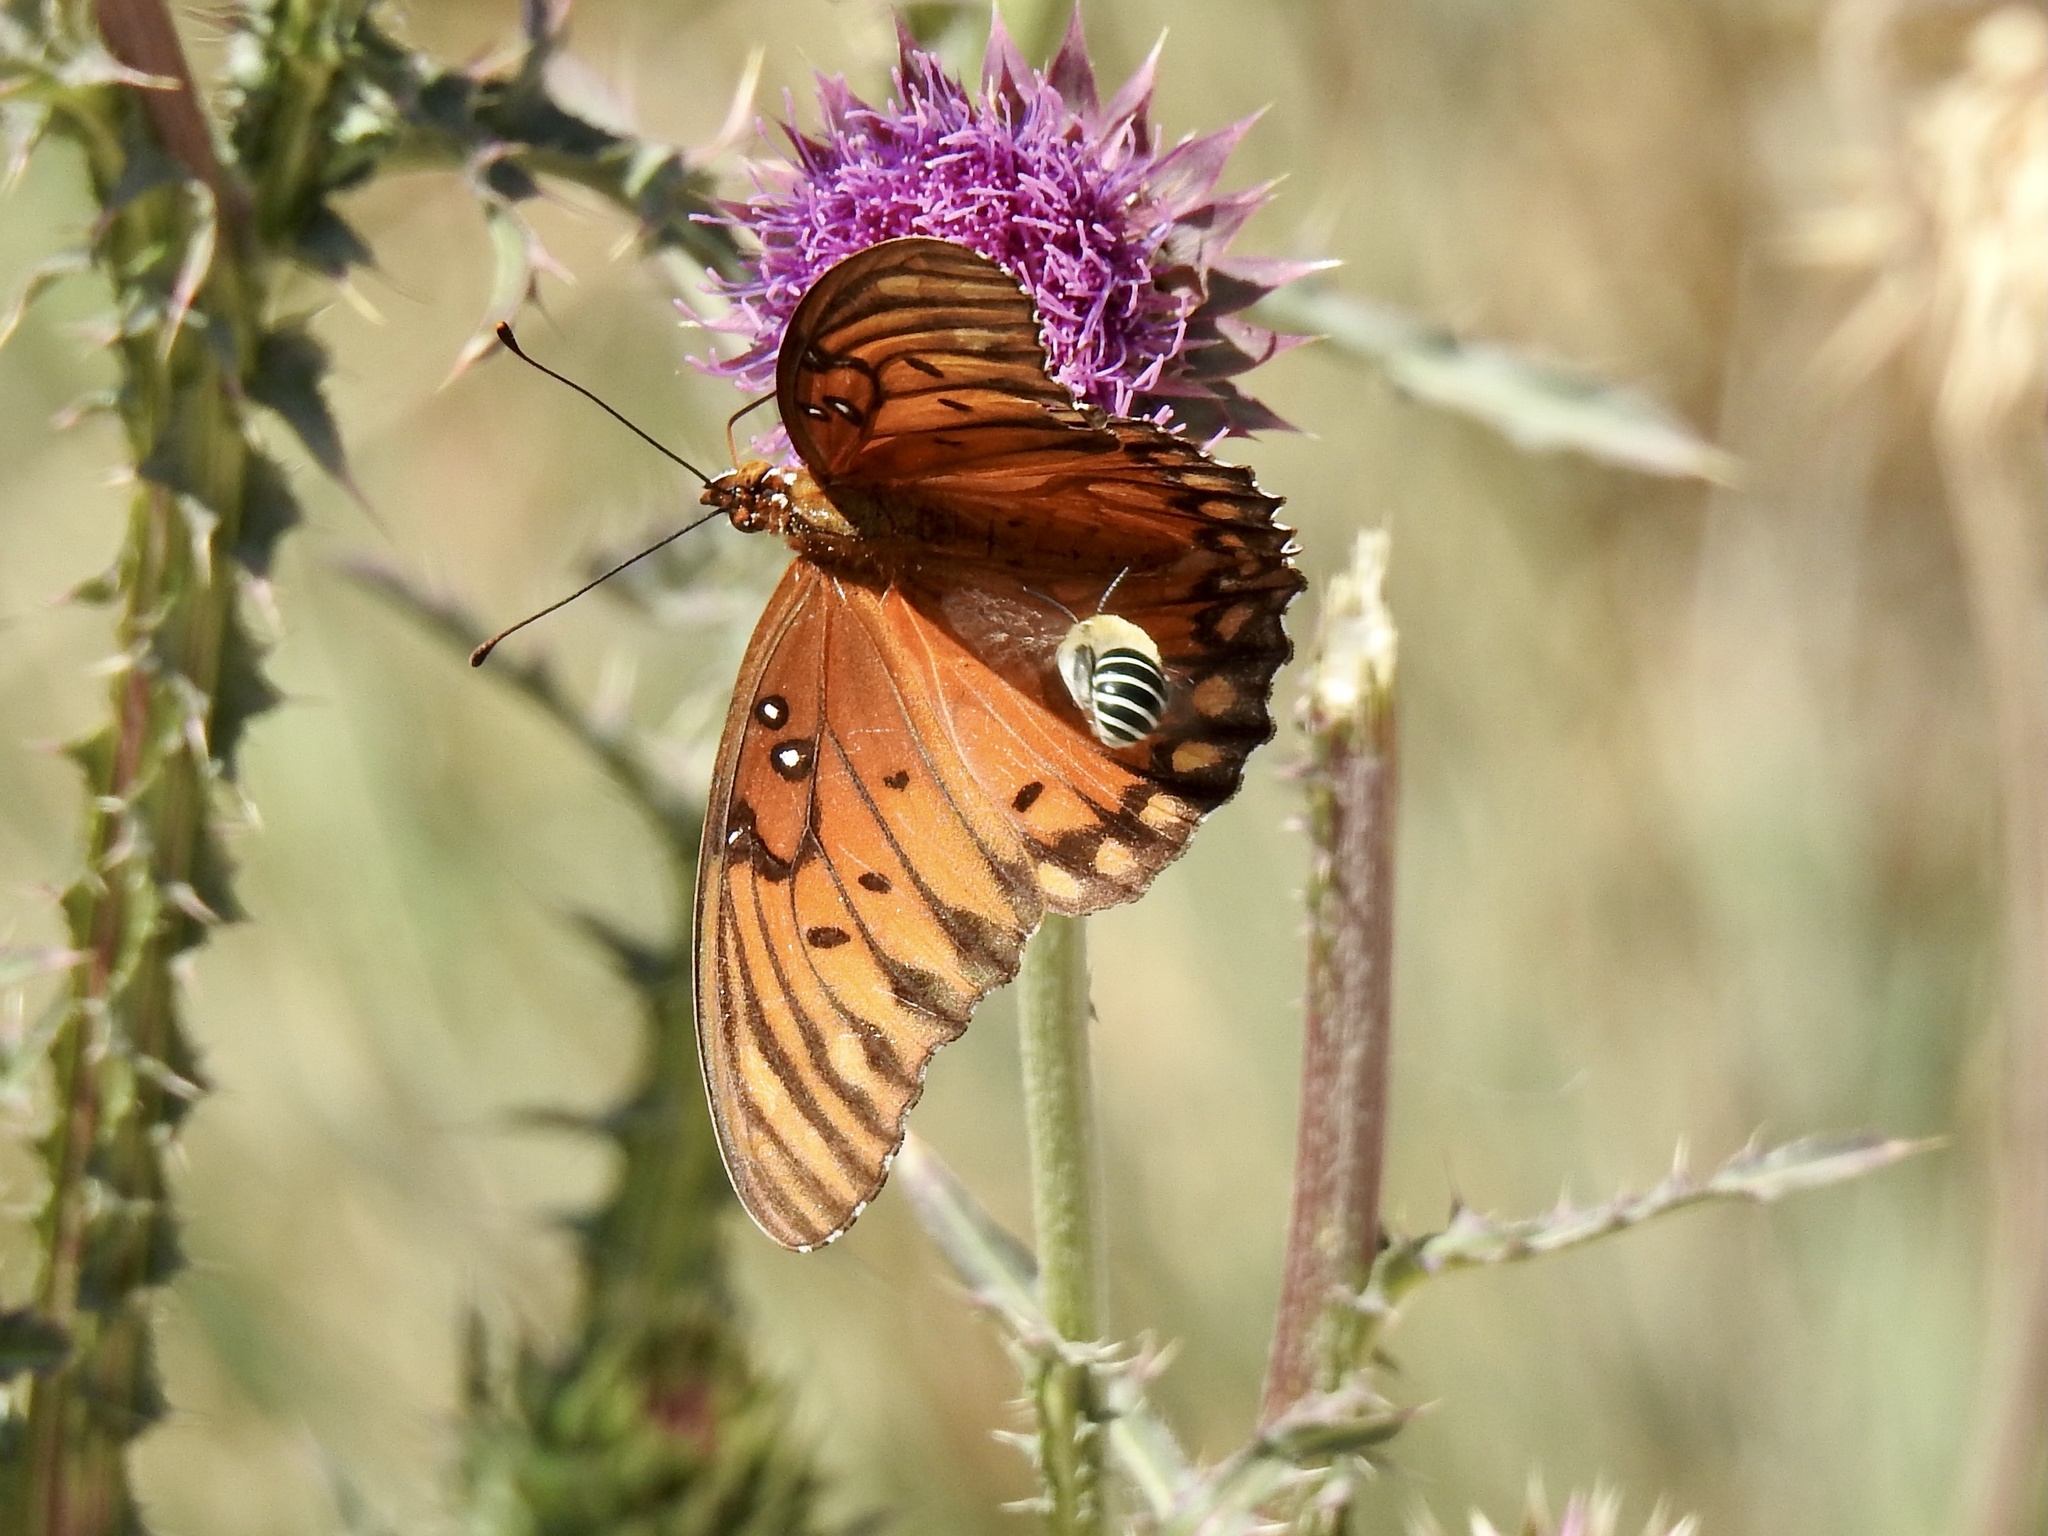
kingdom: Animalia
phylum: Arthropoda
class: Insecta
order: Lepidoptera
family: Nymphalidae
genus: Dione
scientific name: Dione vanillae
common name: Gulf fritillary
